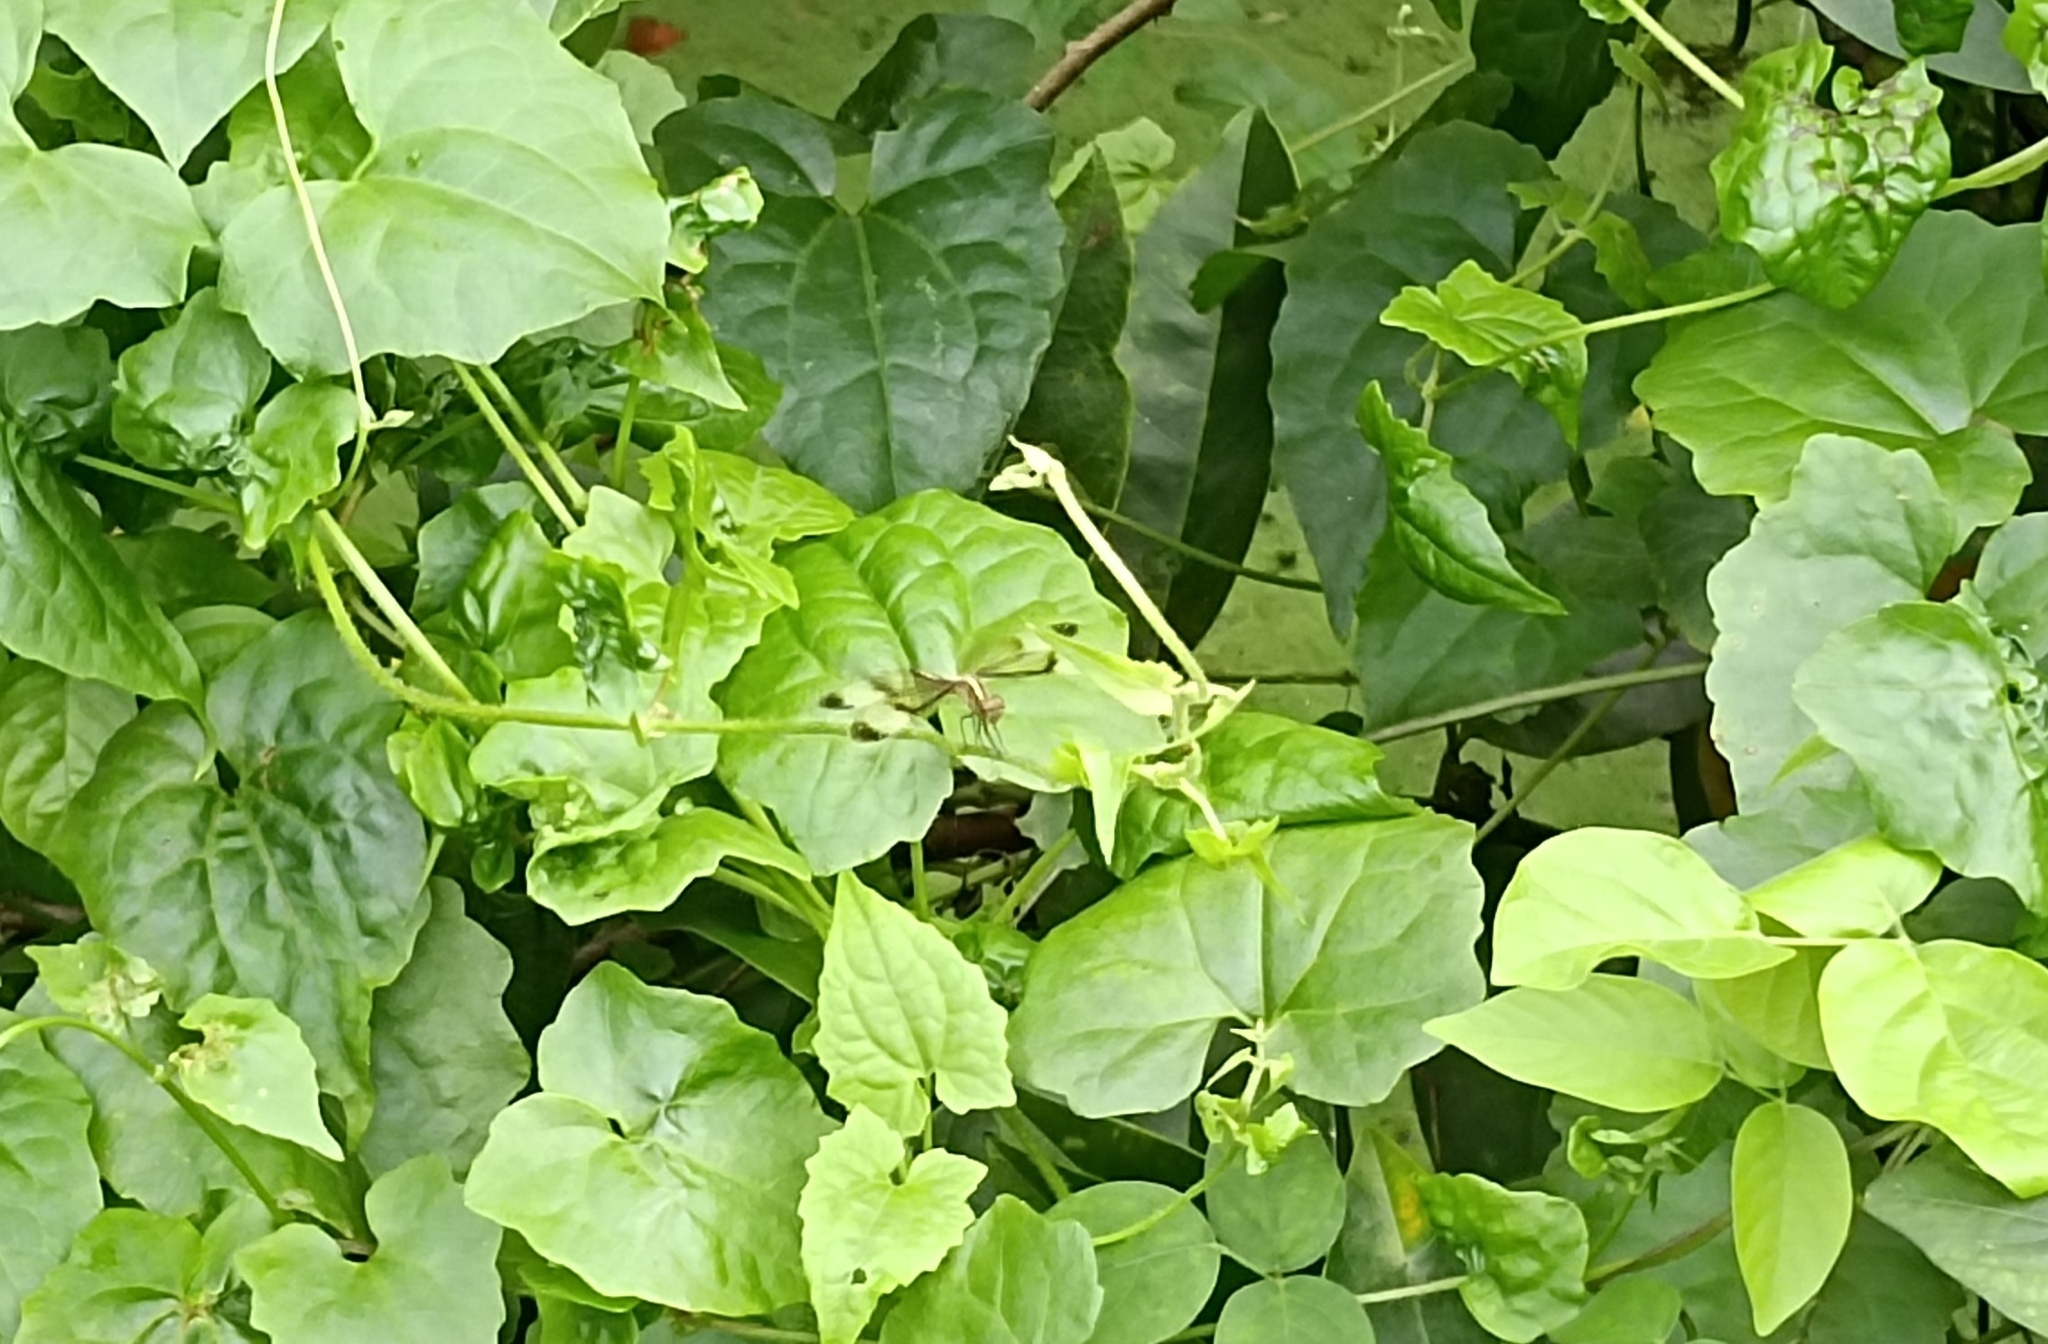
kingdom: Animalia
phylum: Arthropoda
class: Insecta
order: Odonata
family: Libellulidae
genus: Neurothemis
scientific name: Neurothemis tullia
